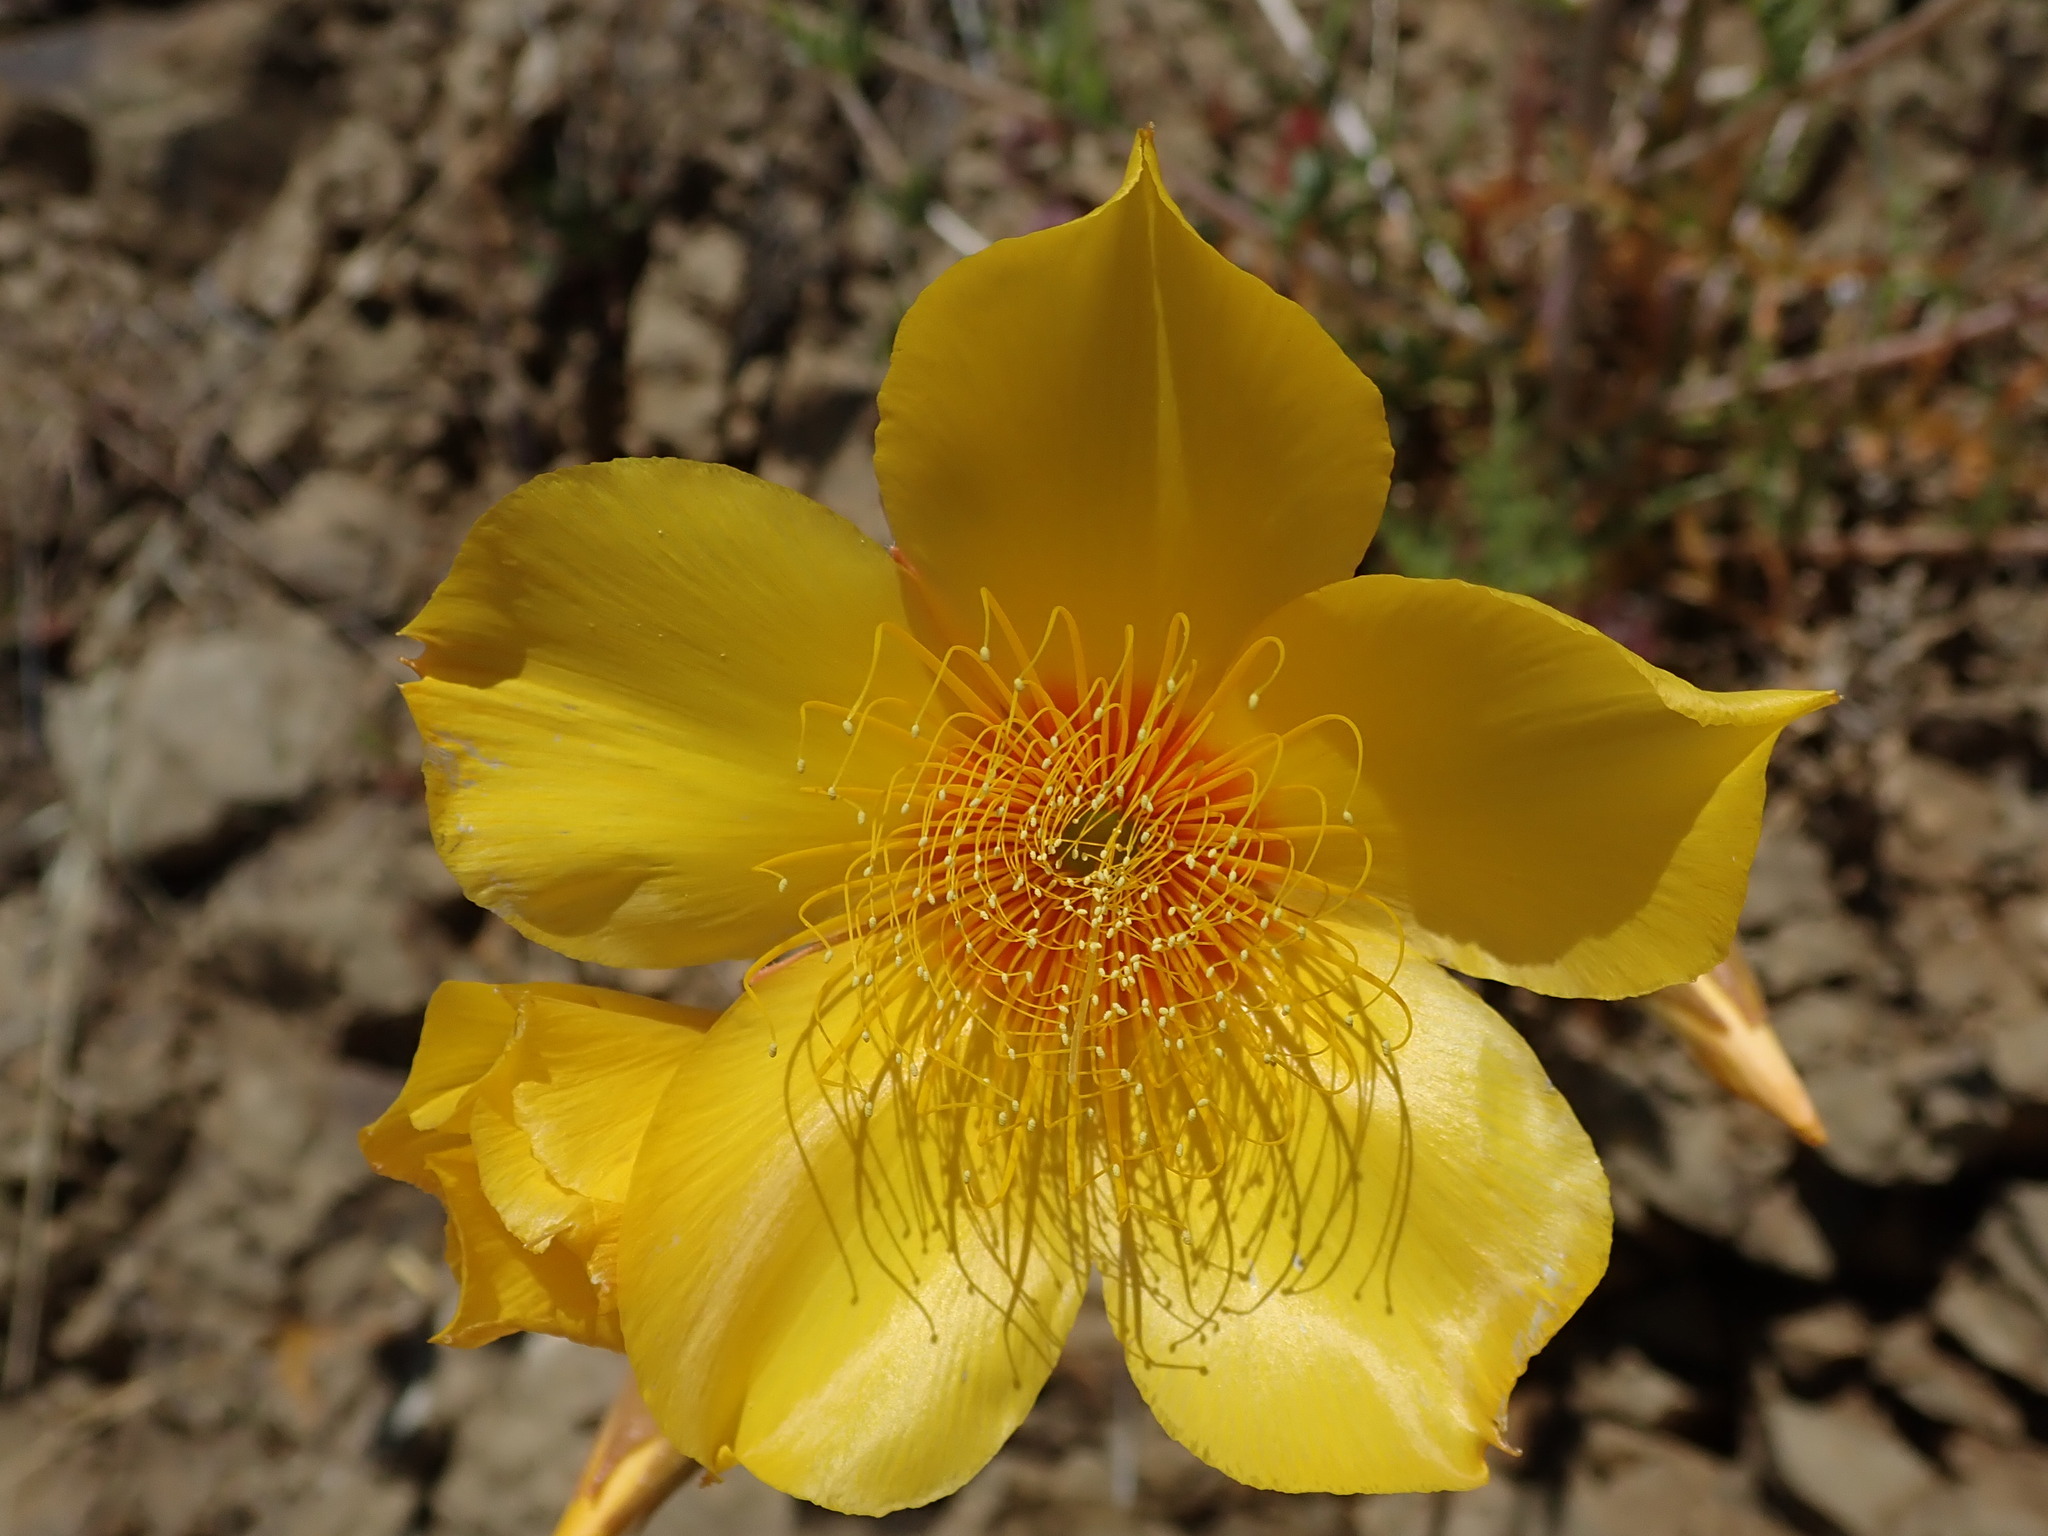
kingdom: Plantae
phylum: Tracheophyta
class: Magnoliopsida
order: Cornales
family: Loasaceae
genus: Mentzelia
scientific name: Mentzelia lindleyi
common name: Golden bartonia
